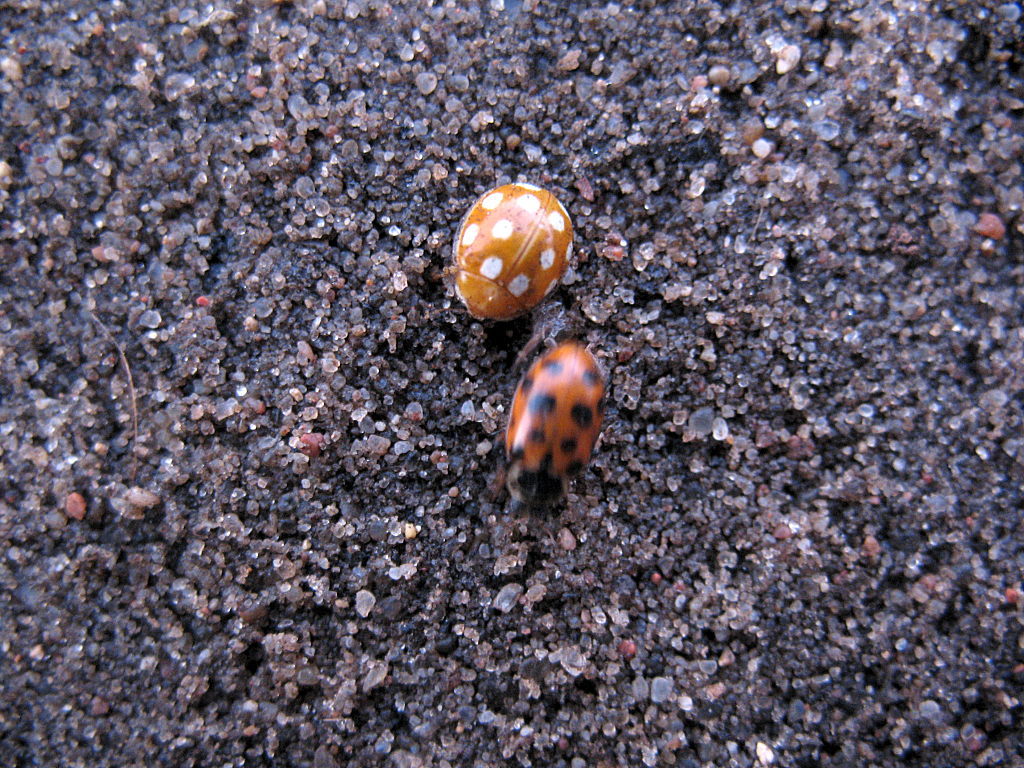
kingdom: Animalia
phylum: Arthropoda
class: Insecta
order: Coleoptera
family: Coccinellidae
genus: Calvia
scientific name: Calvia quindecimguttata
